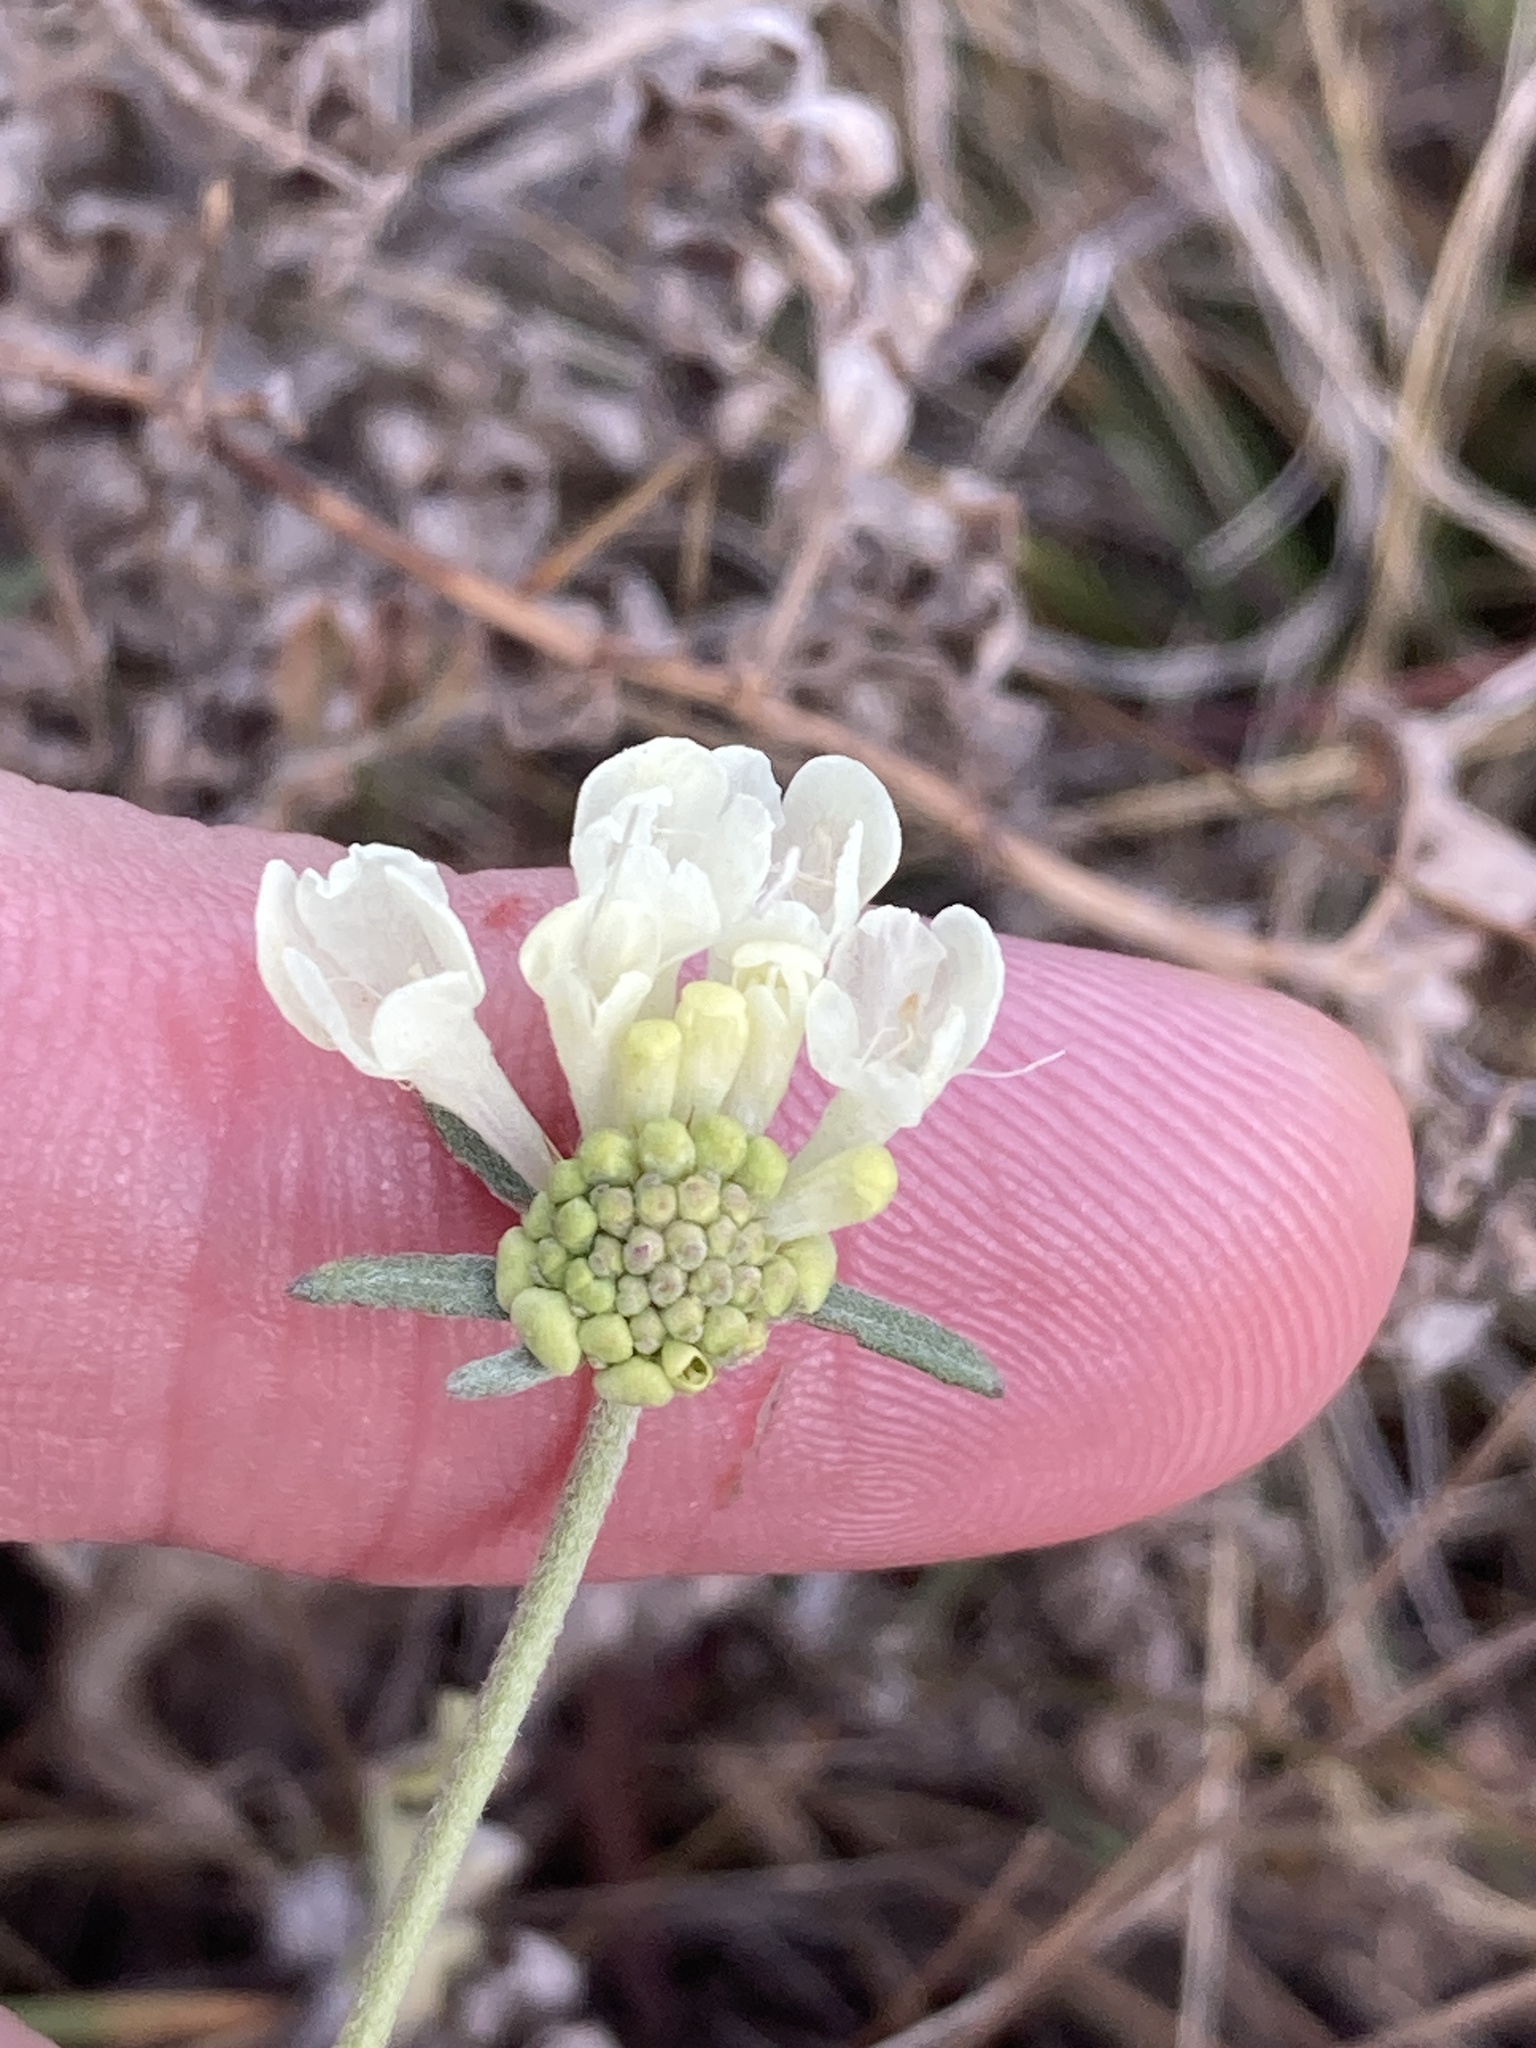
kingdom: Plantae
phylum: Tracheophyta
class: Magnoliopsida
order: Dipsacales
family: Caprifoliaceae
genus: Scabiosa
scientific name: Scabiosa ochroleuca
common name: Cream pincushions
